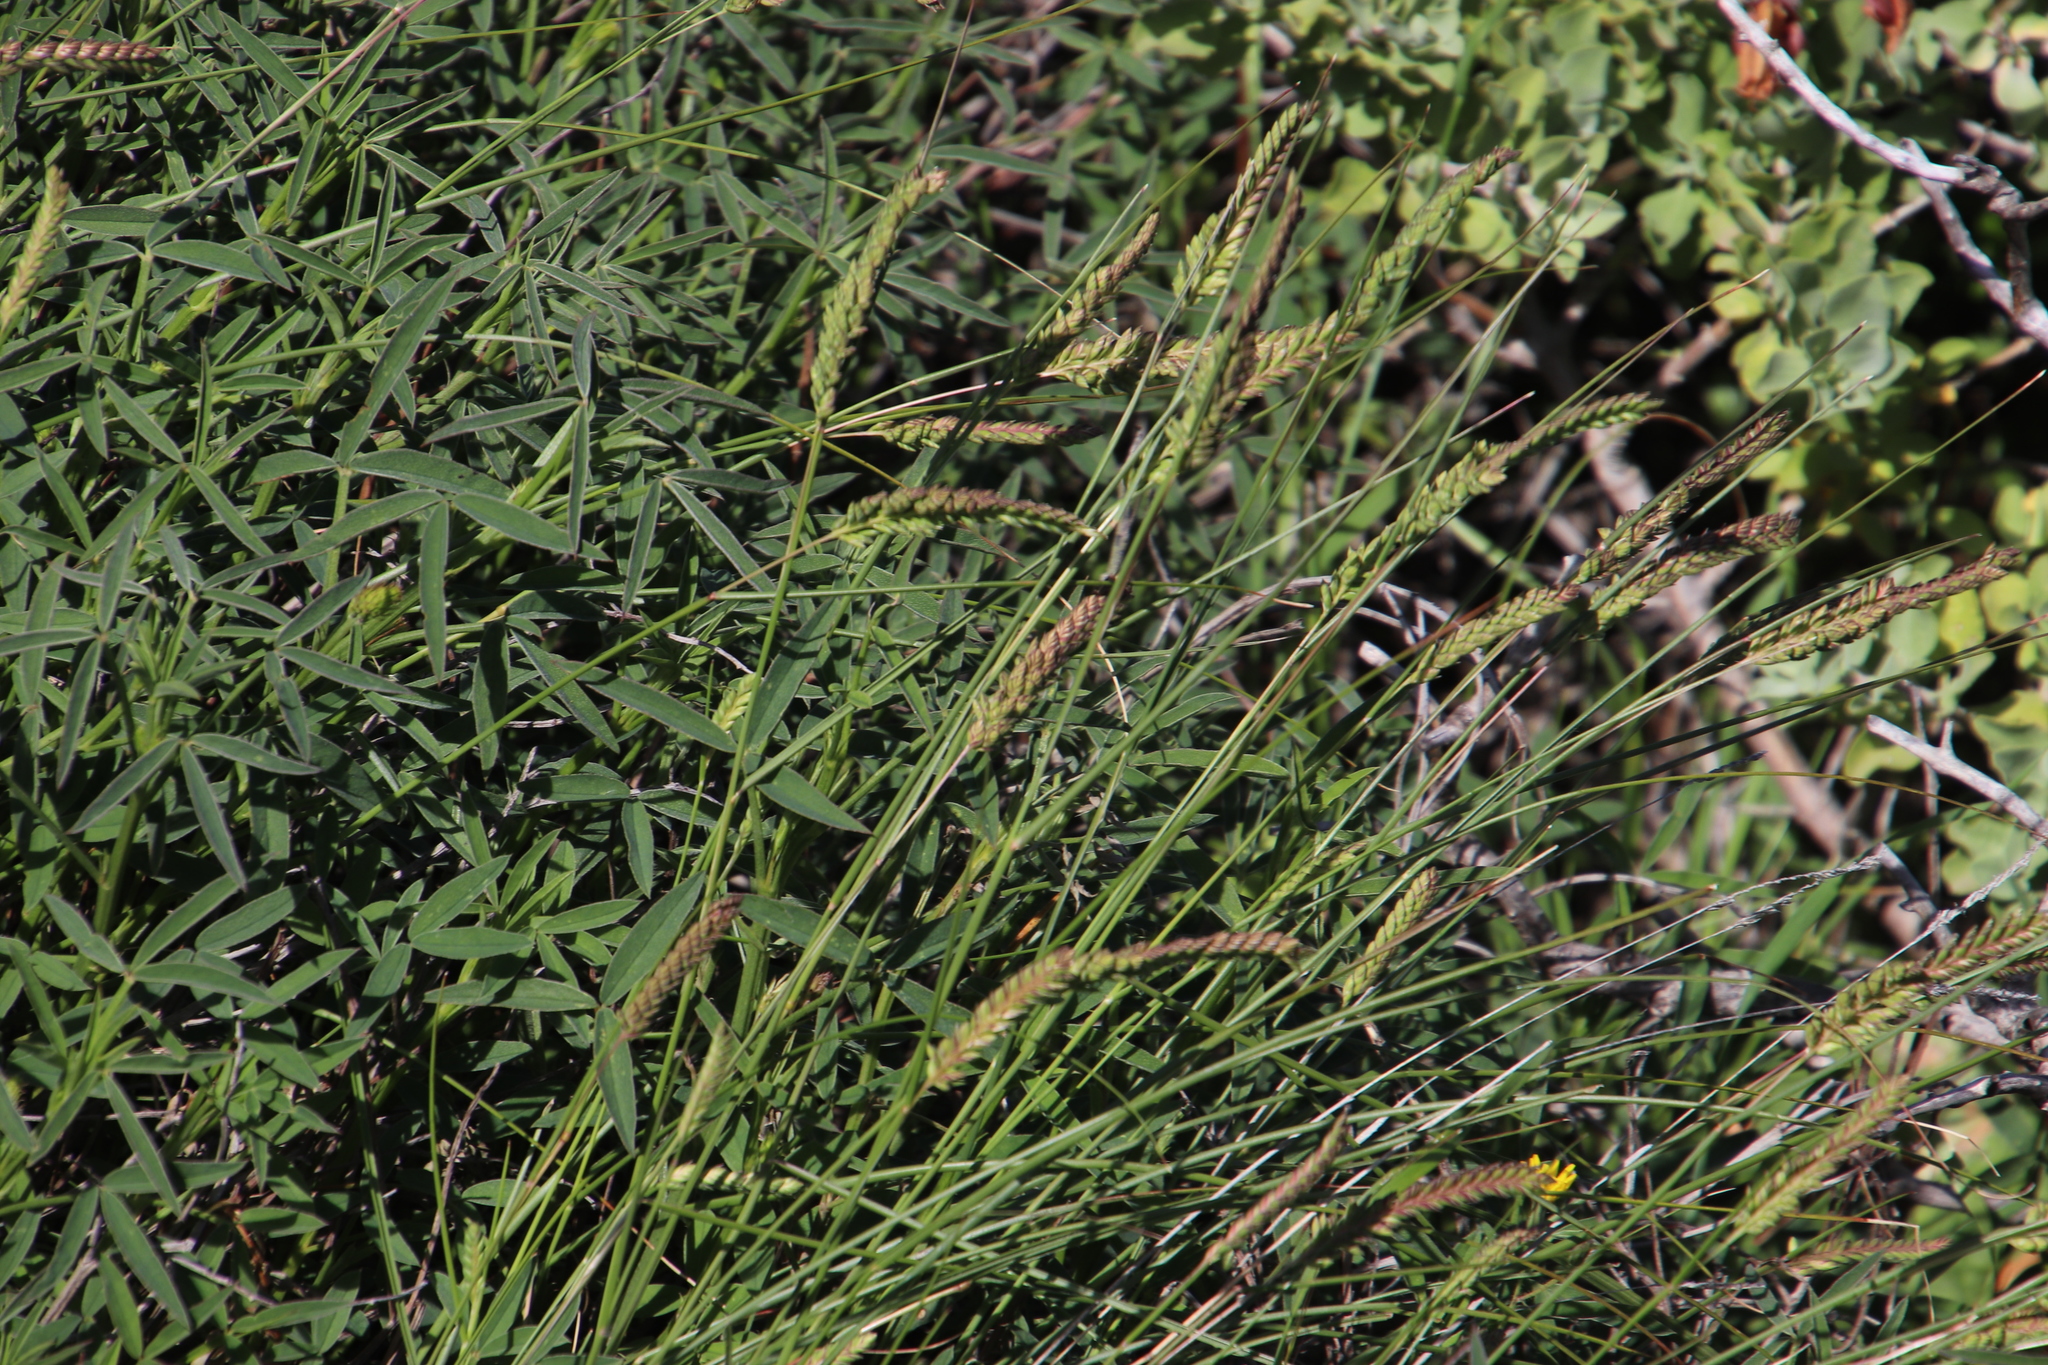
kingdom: Plantae
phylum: Tracheophyta
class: Liliopsida
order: Poales
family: Poaceae
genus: Tribolium
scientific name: Tribolium uniolae
